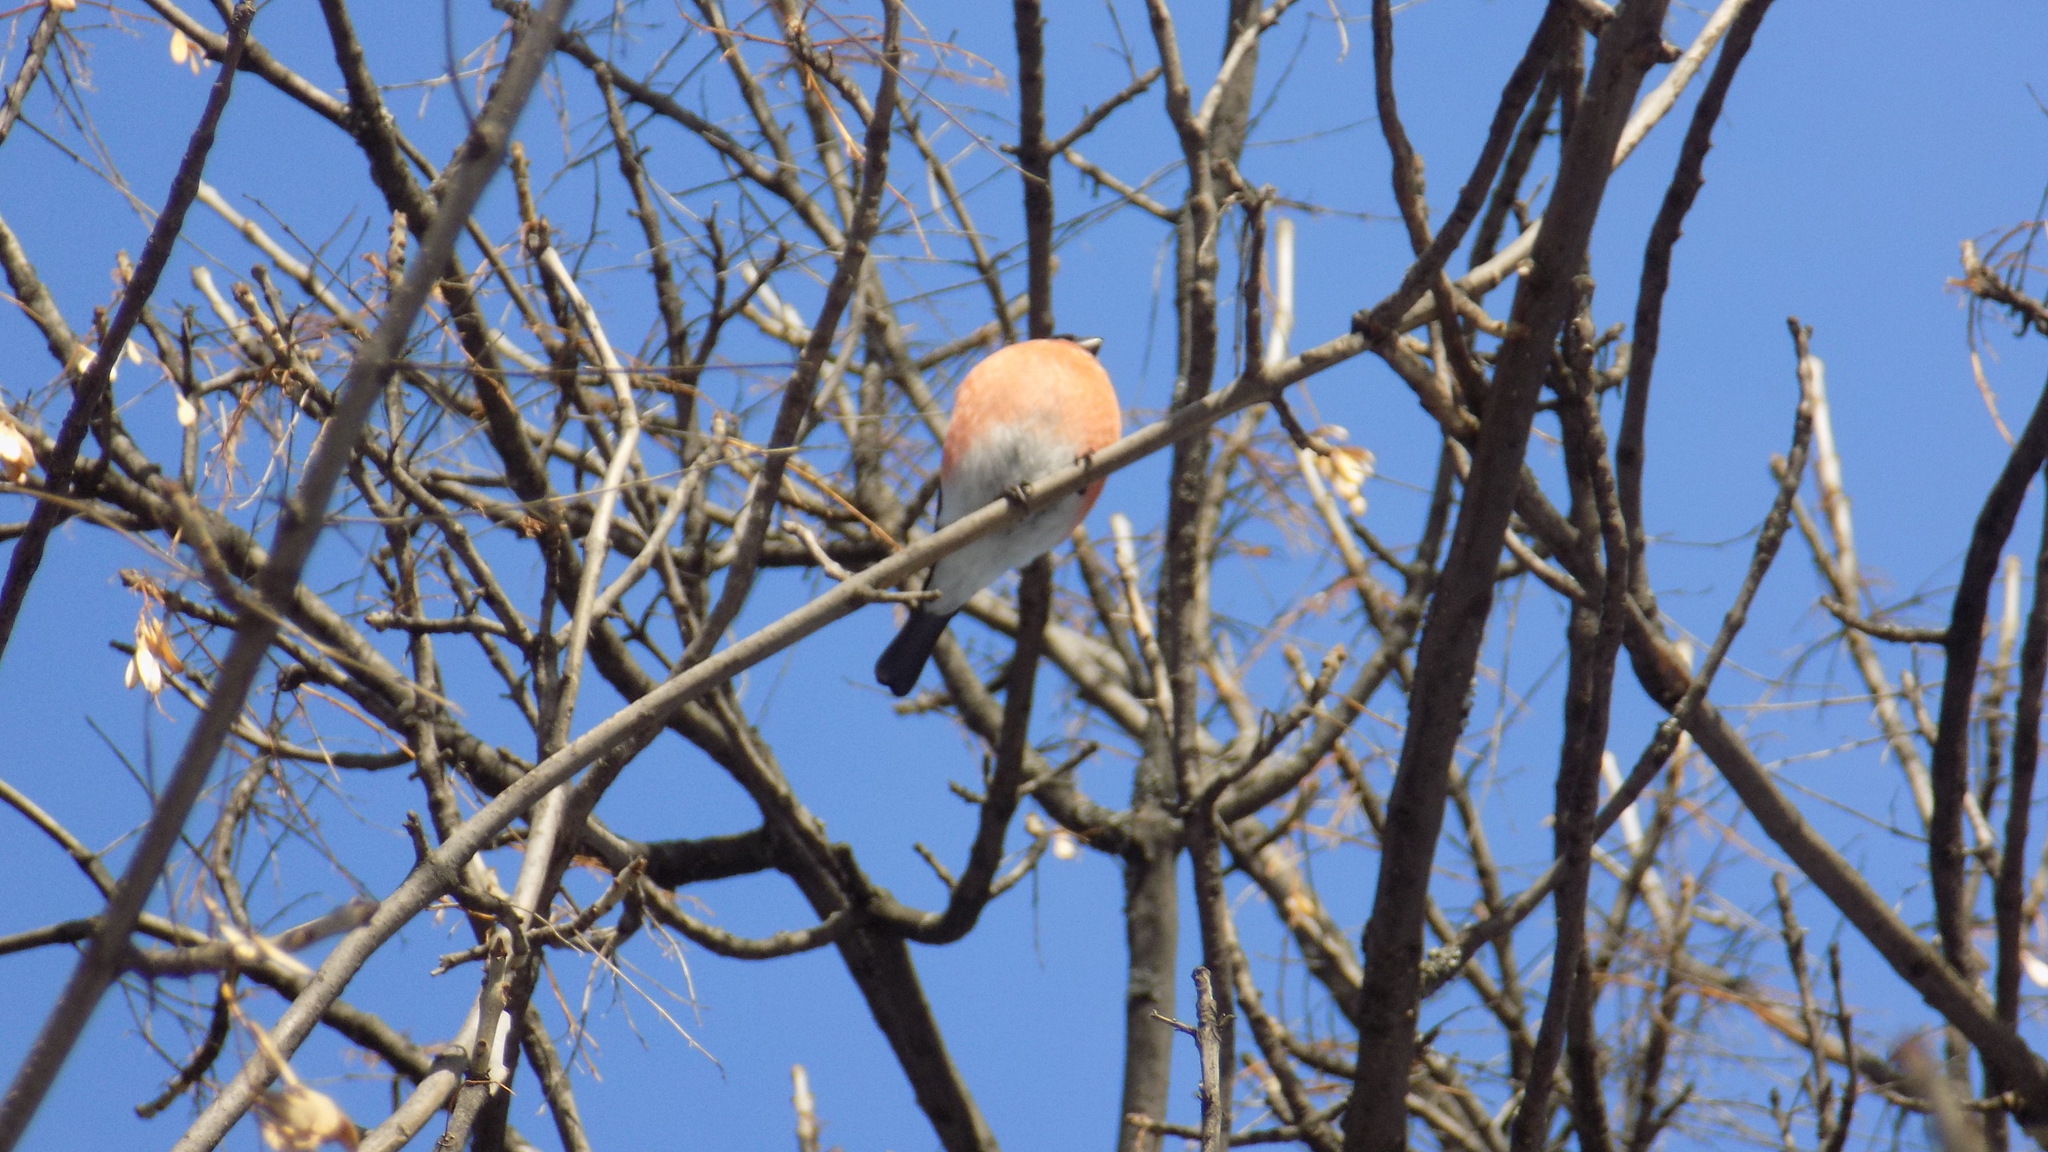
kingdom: Animalia
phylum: Chordata
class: Aves
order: Passeriformes
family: Fringillidae
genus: Pyrrhula
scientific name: Pyrrhula pyrrhula
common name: Eurasian bullfinch
